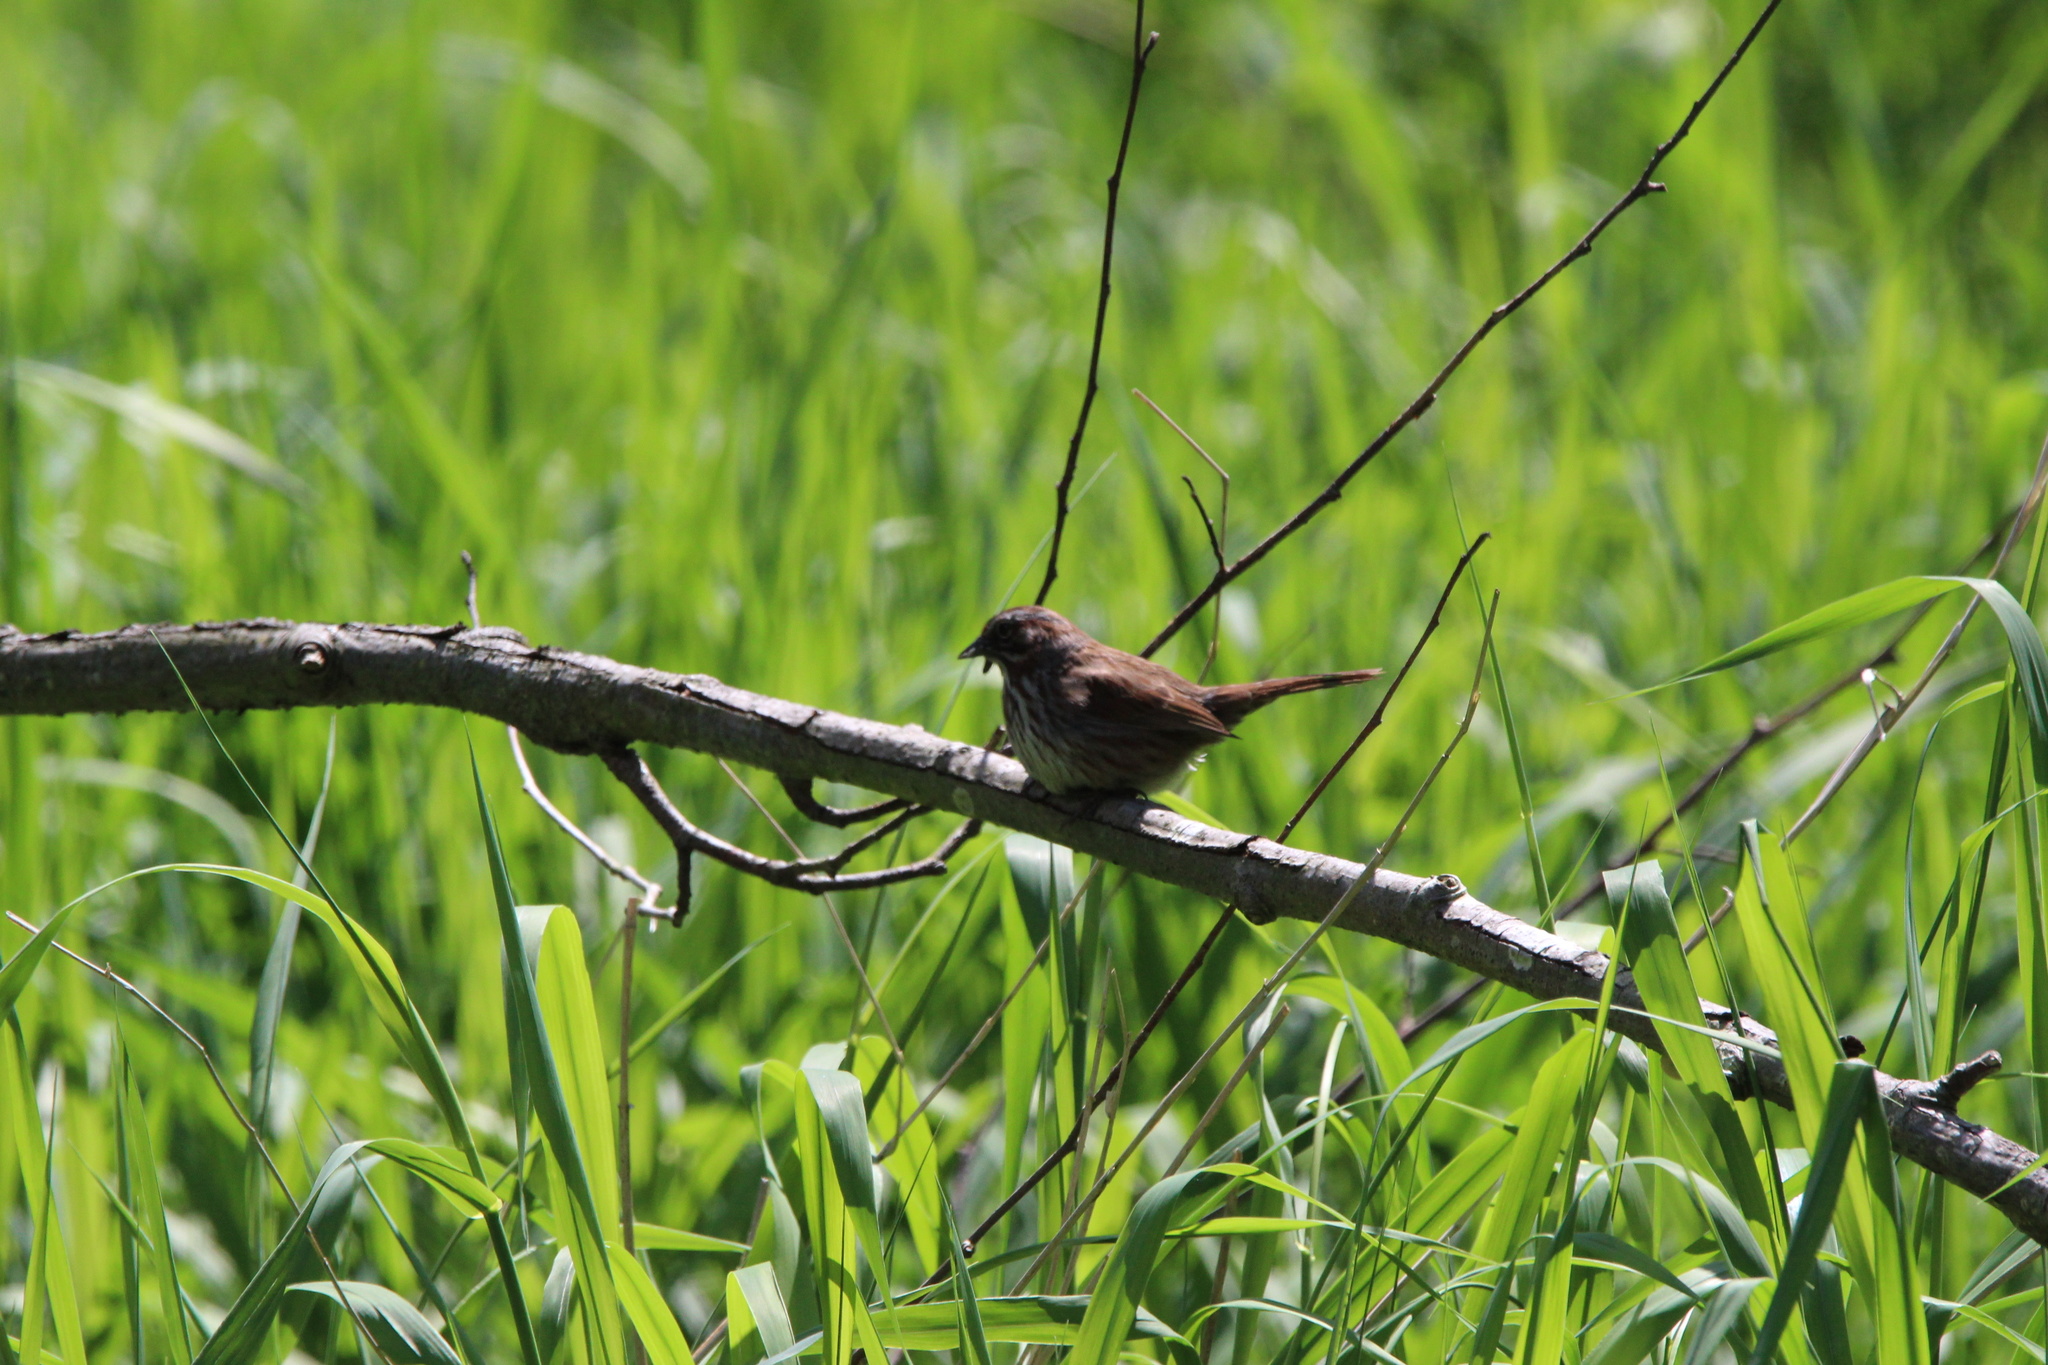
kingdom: Animalia
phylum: Chordata
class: Aves
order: Passeriformes
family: Passerellidae
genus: Melospiza
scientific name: Melospiza melodia
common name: Song sparrow
